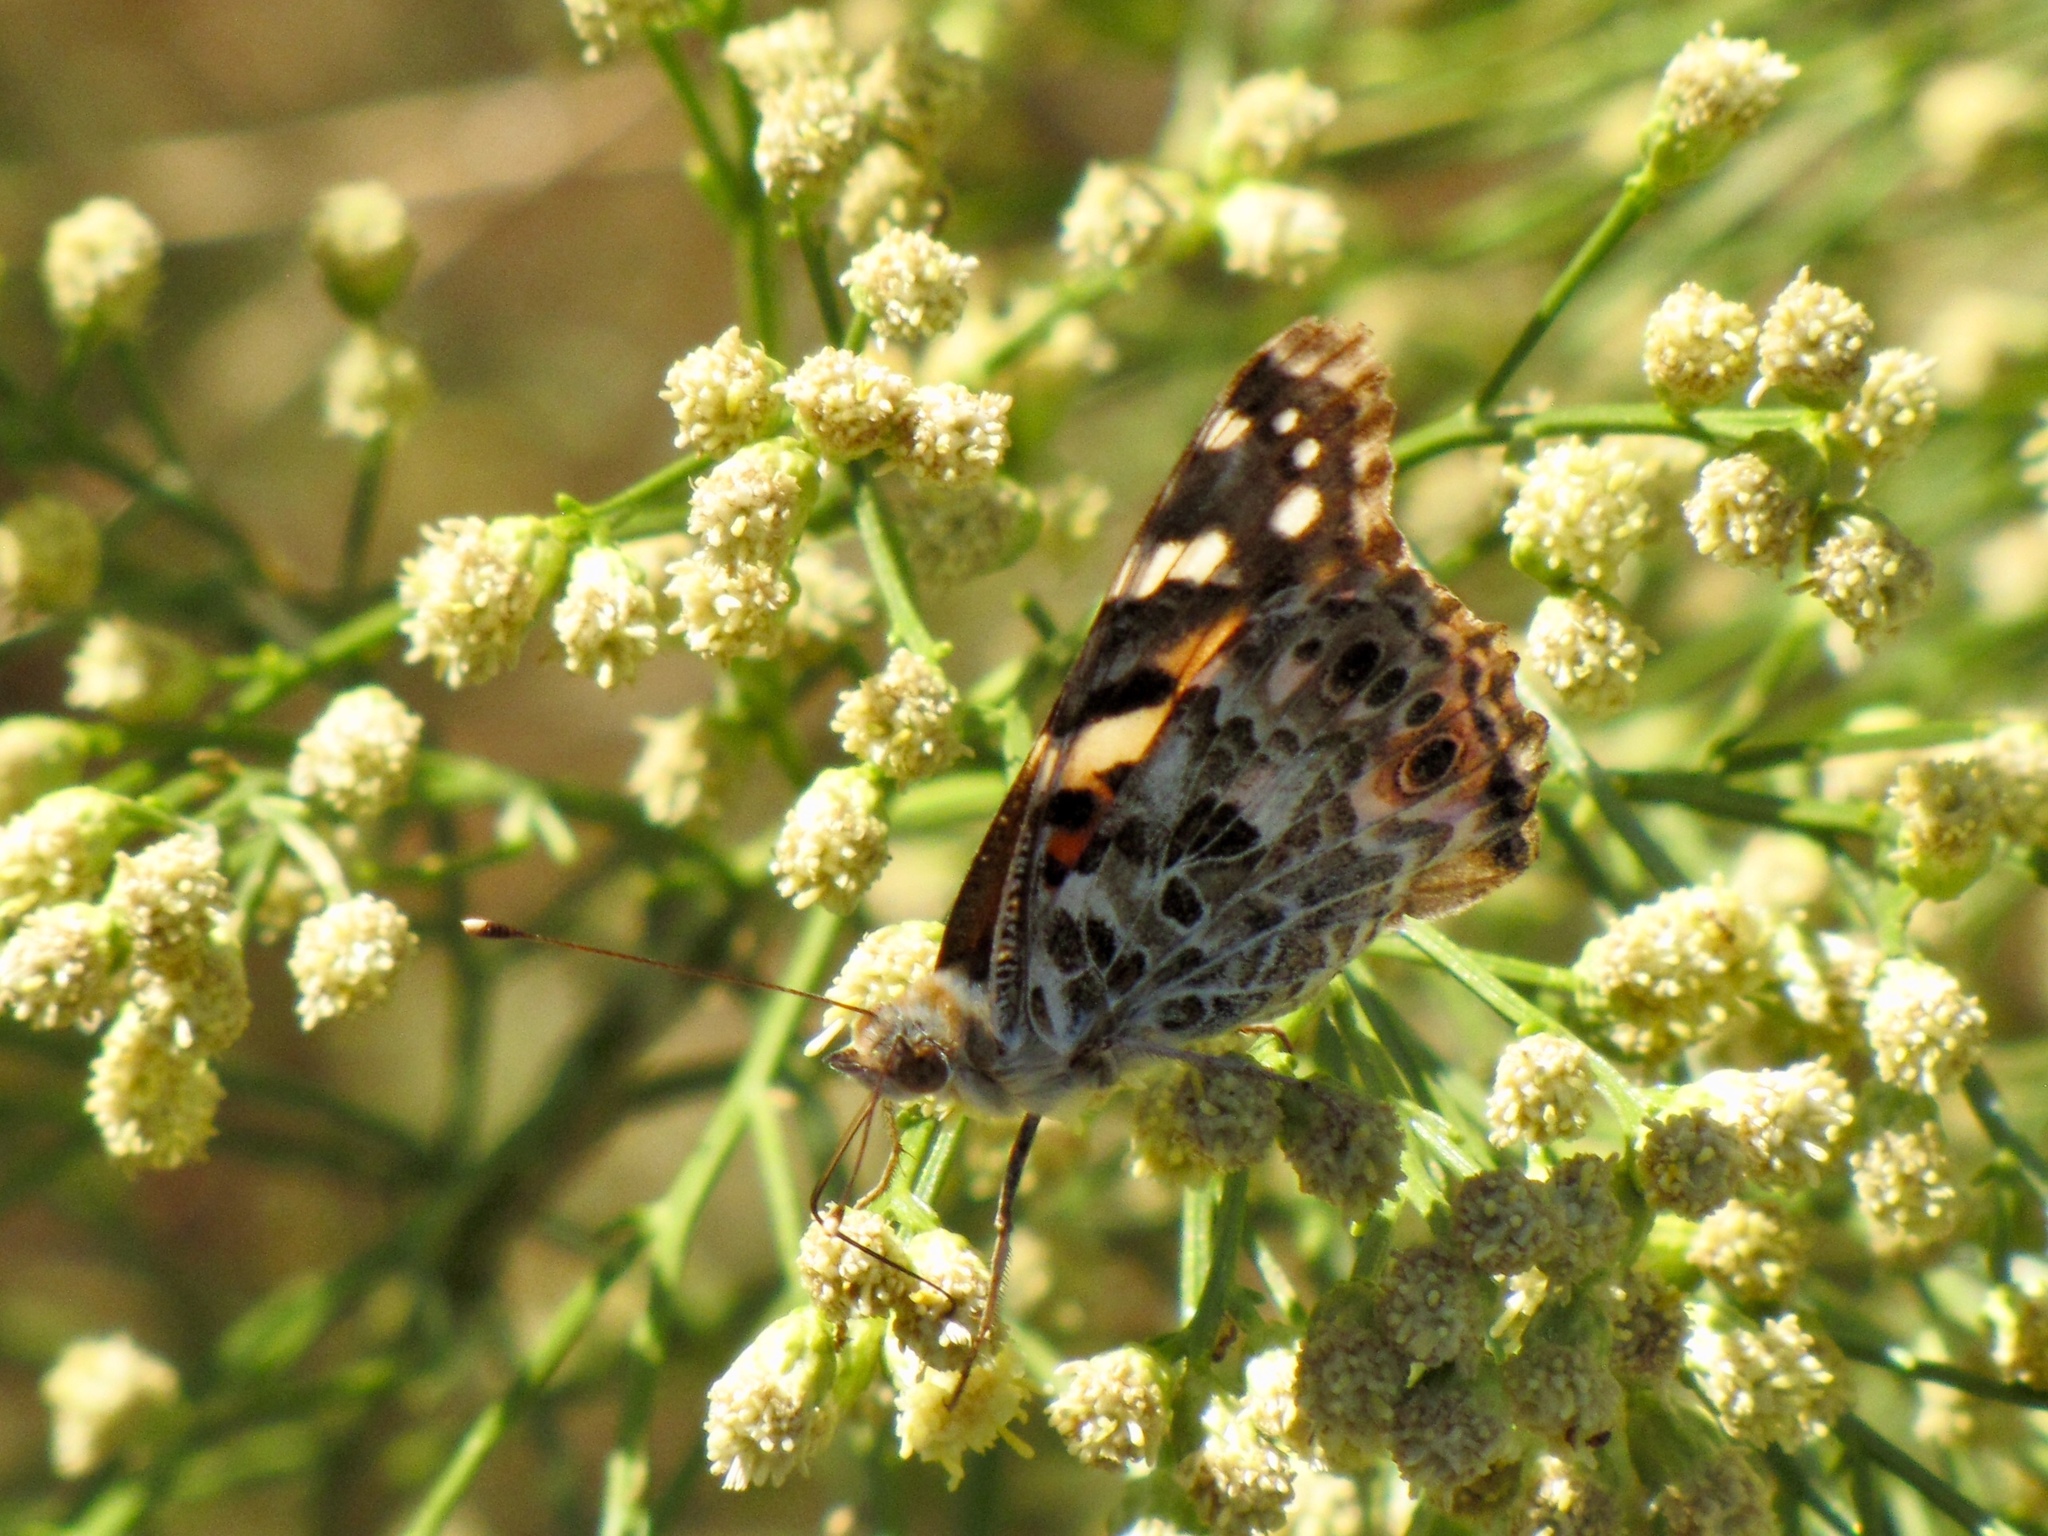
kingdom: Animalia
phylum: Arthropoda
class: Insecta
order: Lepidoptera
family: Nymphalidae
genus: Vanessa
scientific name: Vanessa cardui
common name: Painted lady
